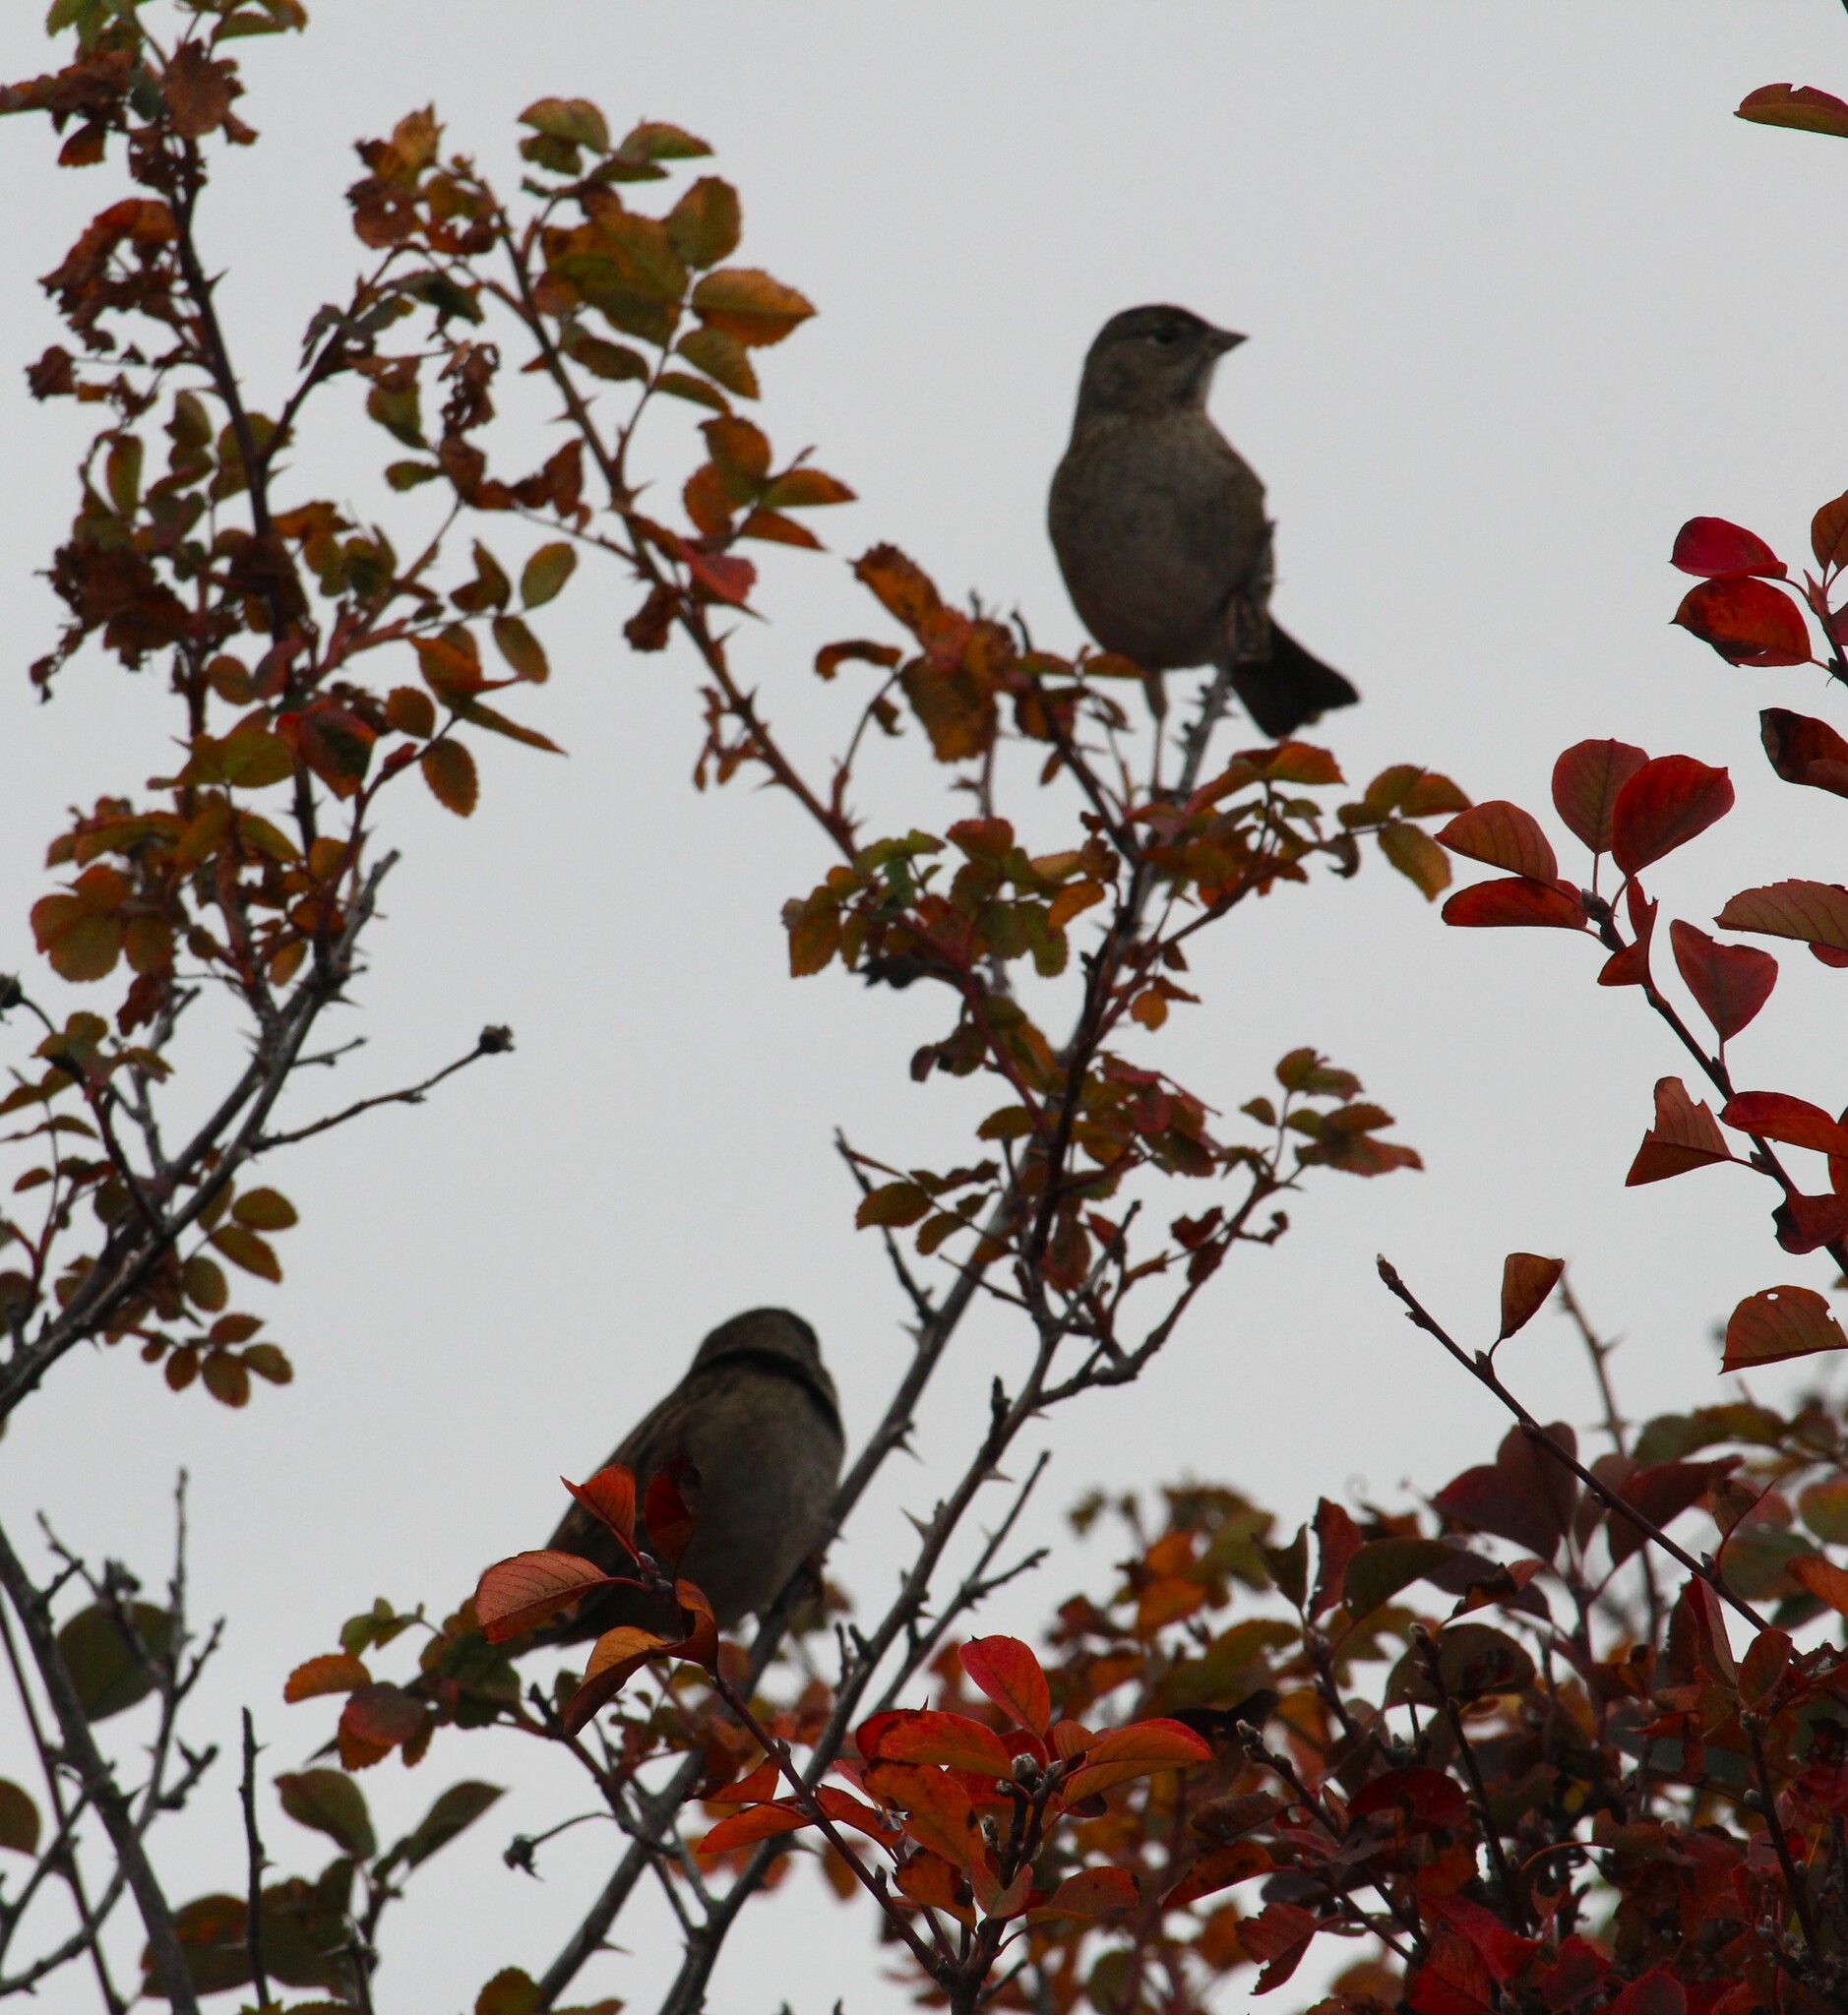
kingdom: Animalia
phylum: Chordata
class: Aves
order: Passeriformes
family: Passerellidae
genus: Zonotrichia
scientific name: Zonotrichia atricapilla
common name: Golden-crowned sparrow
